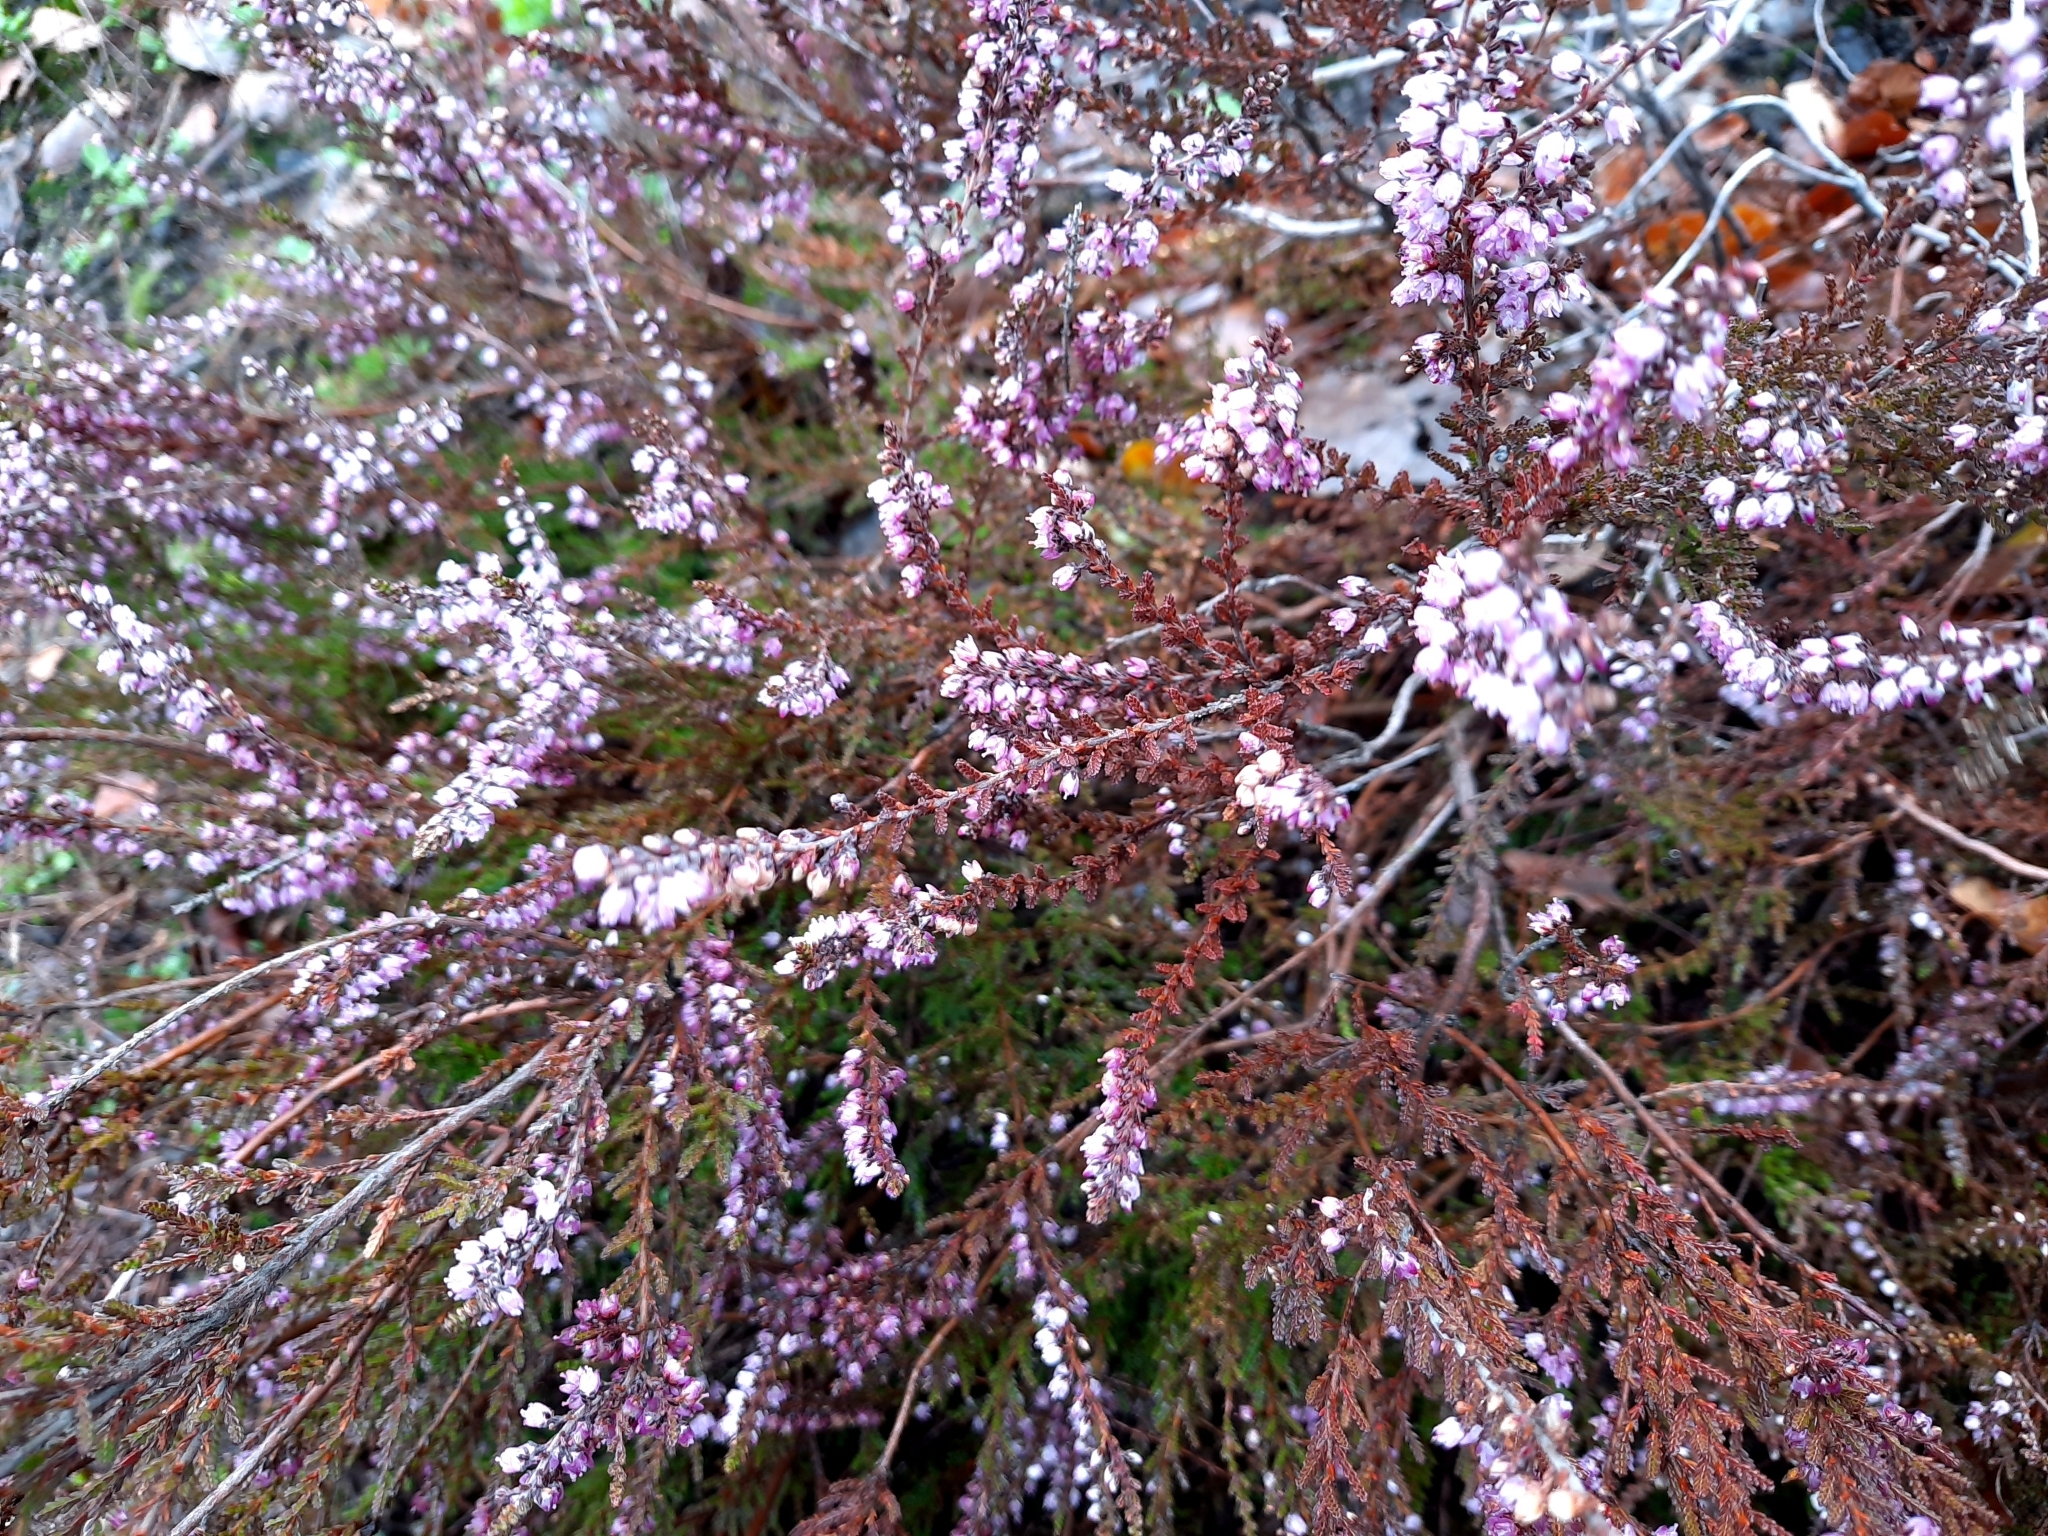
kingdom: Plantae
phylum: Tracheophyta
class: Magnoliopsida
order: Ericales
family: Ericaceae
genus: Calluna
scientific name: Calluna vulgaris
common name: Heather
